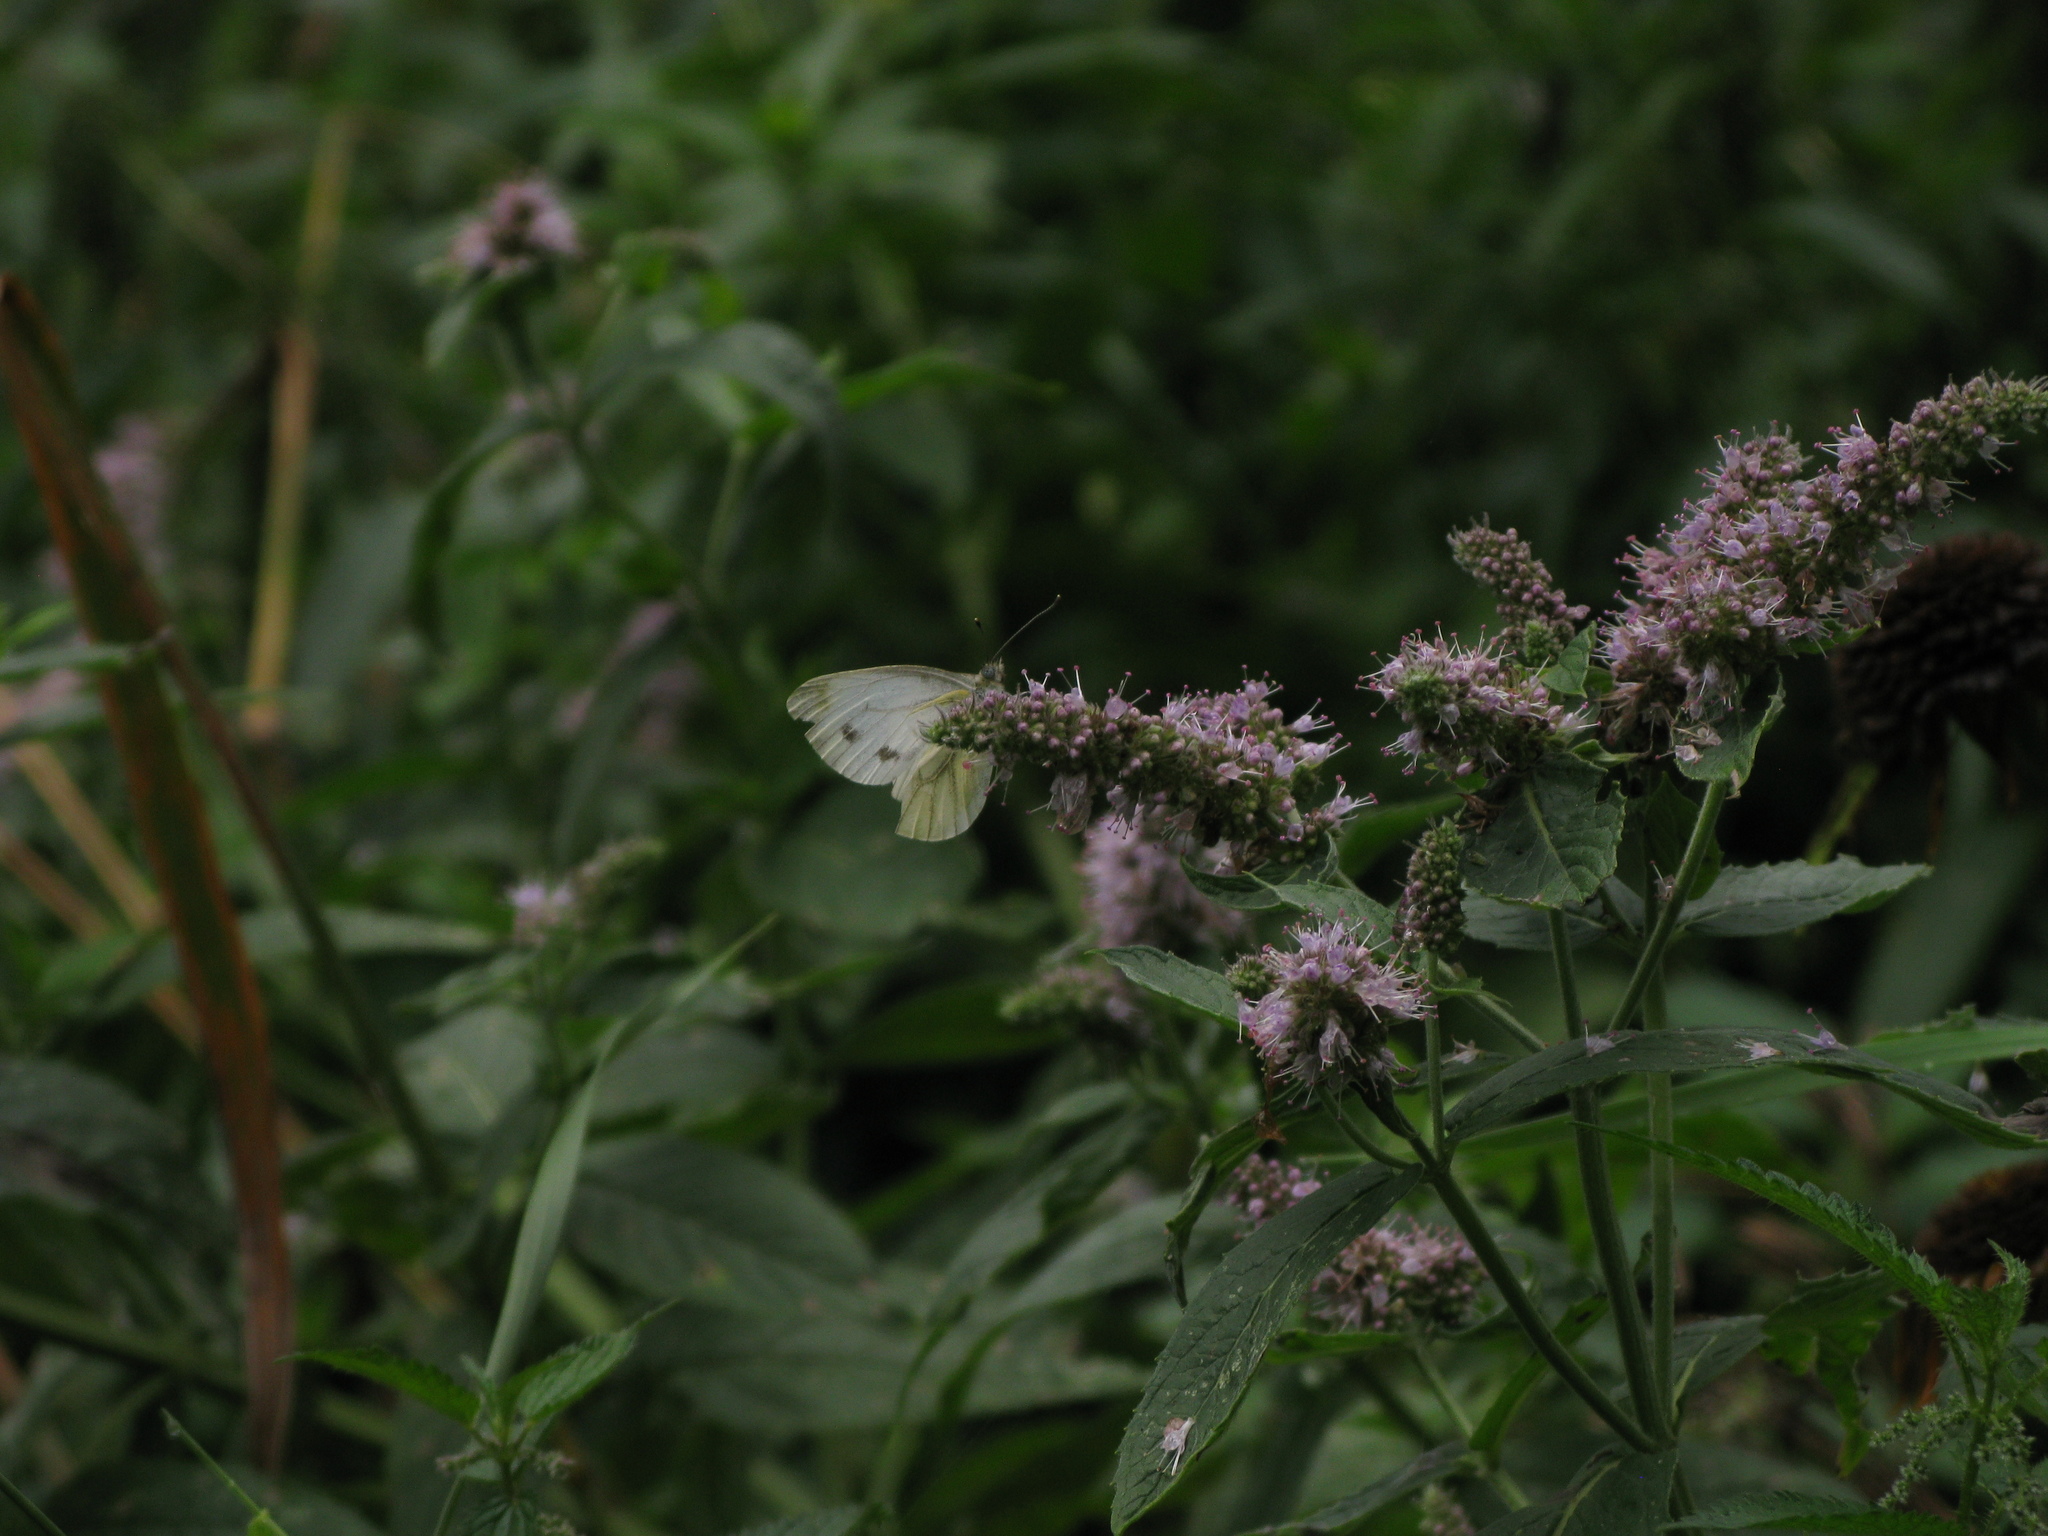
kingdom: Animalia
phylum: Arthropoda
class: Insecta
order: Lepidoptera
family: Pieridae
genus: Pieris
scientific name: Pieris napi
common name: Green-veined white
